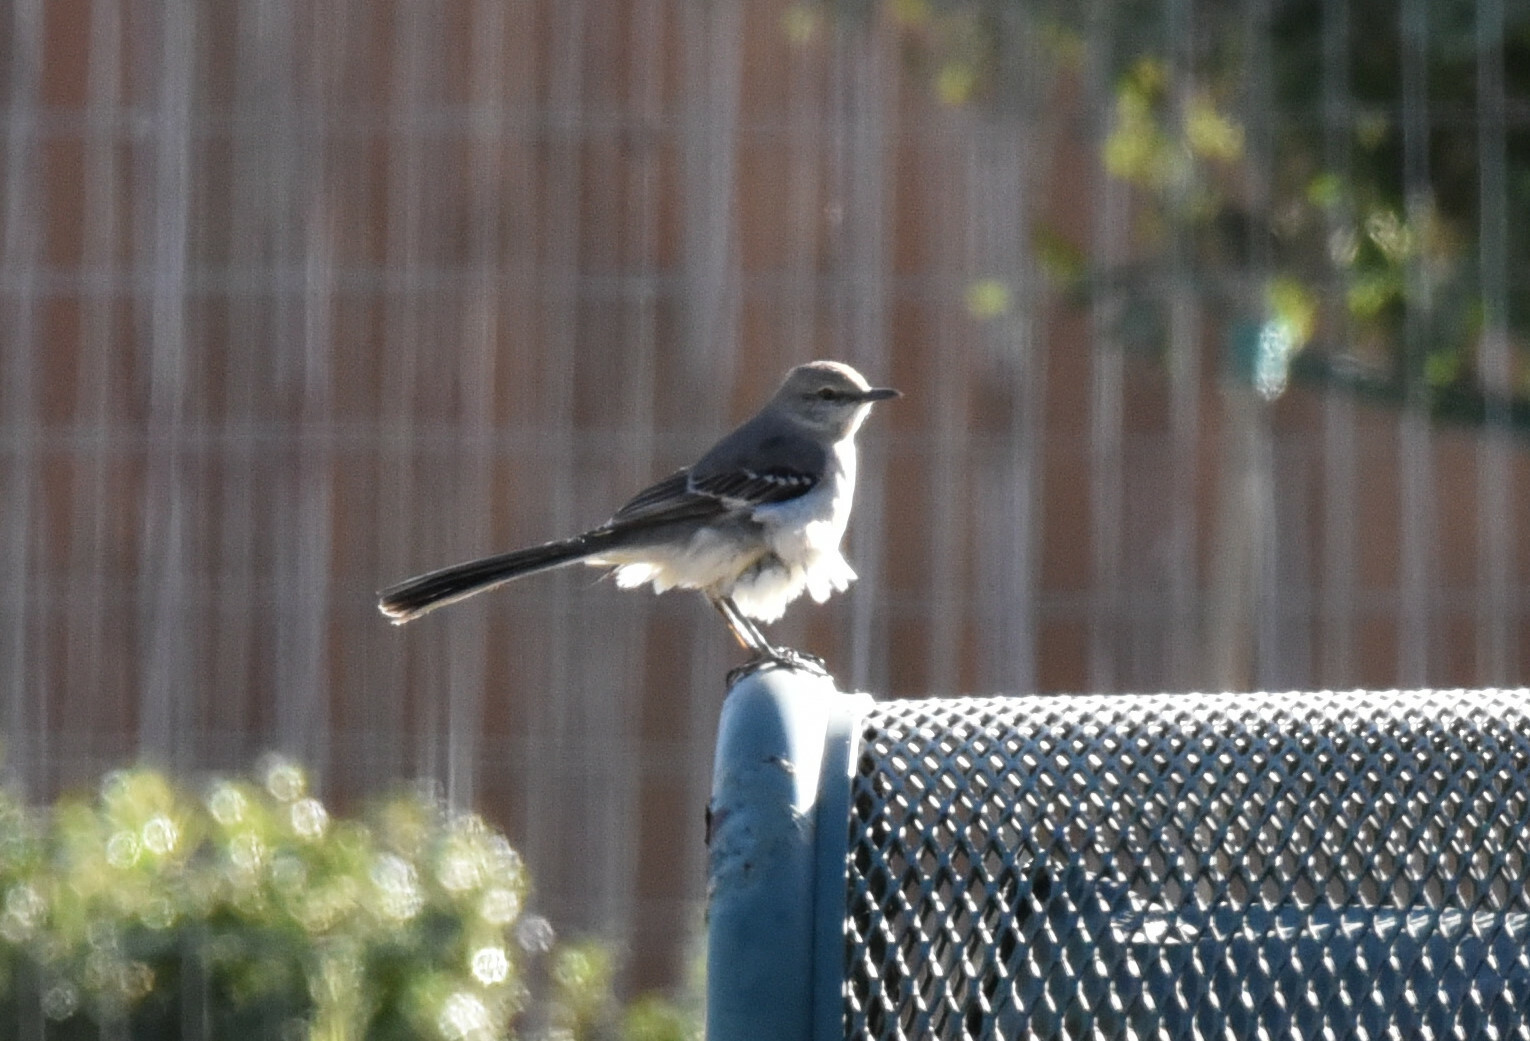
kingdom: Animalia
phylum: Chordata
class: Aves
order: Passeriformes
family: Mimidae
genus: Mimus
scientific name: Mimus polyglottos
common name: Northern mockingbird
